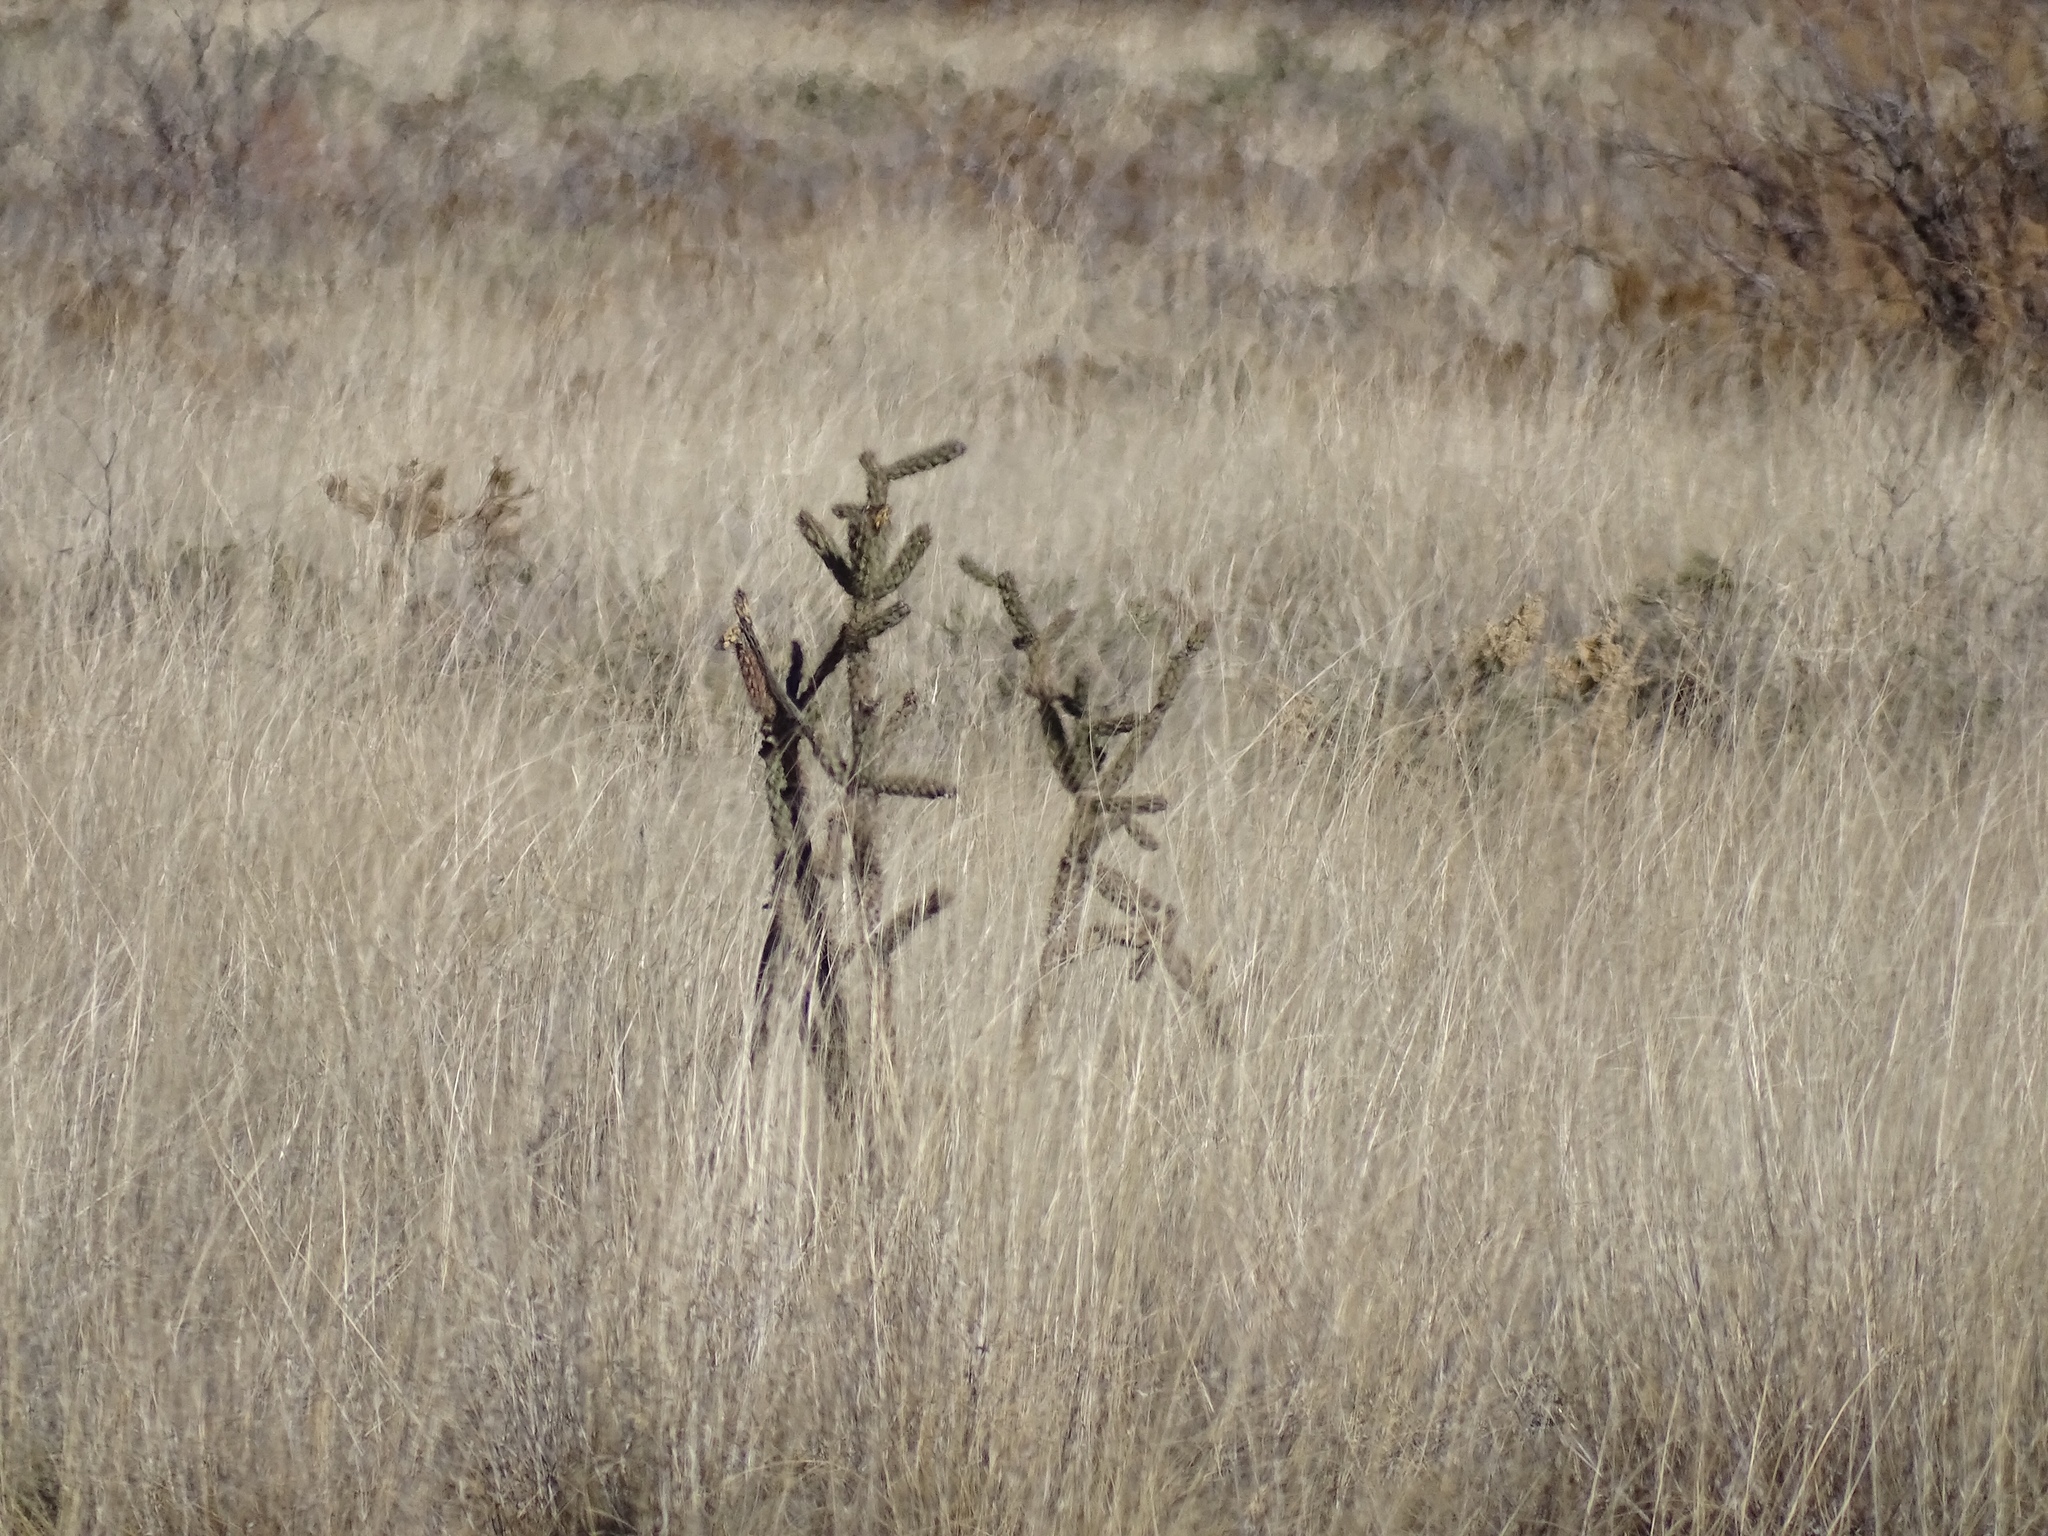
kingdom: Plantae
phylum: Tracheophyta
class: Magnoliopsida
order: Caryophyllales
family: Cactaceae
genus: Cylindropuntia
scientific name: Cylindropuntia imbricata
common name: Candelabrum cactus
